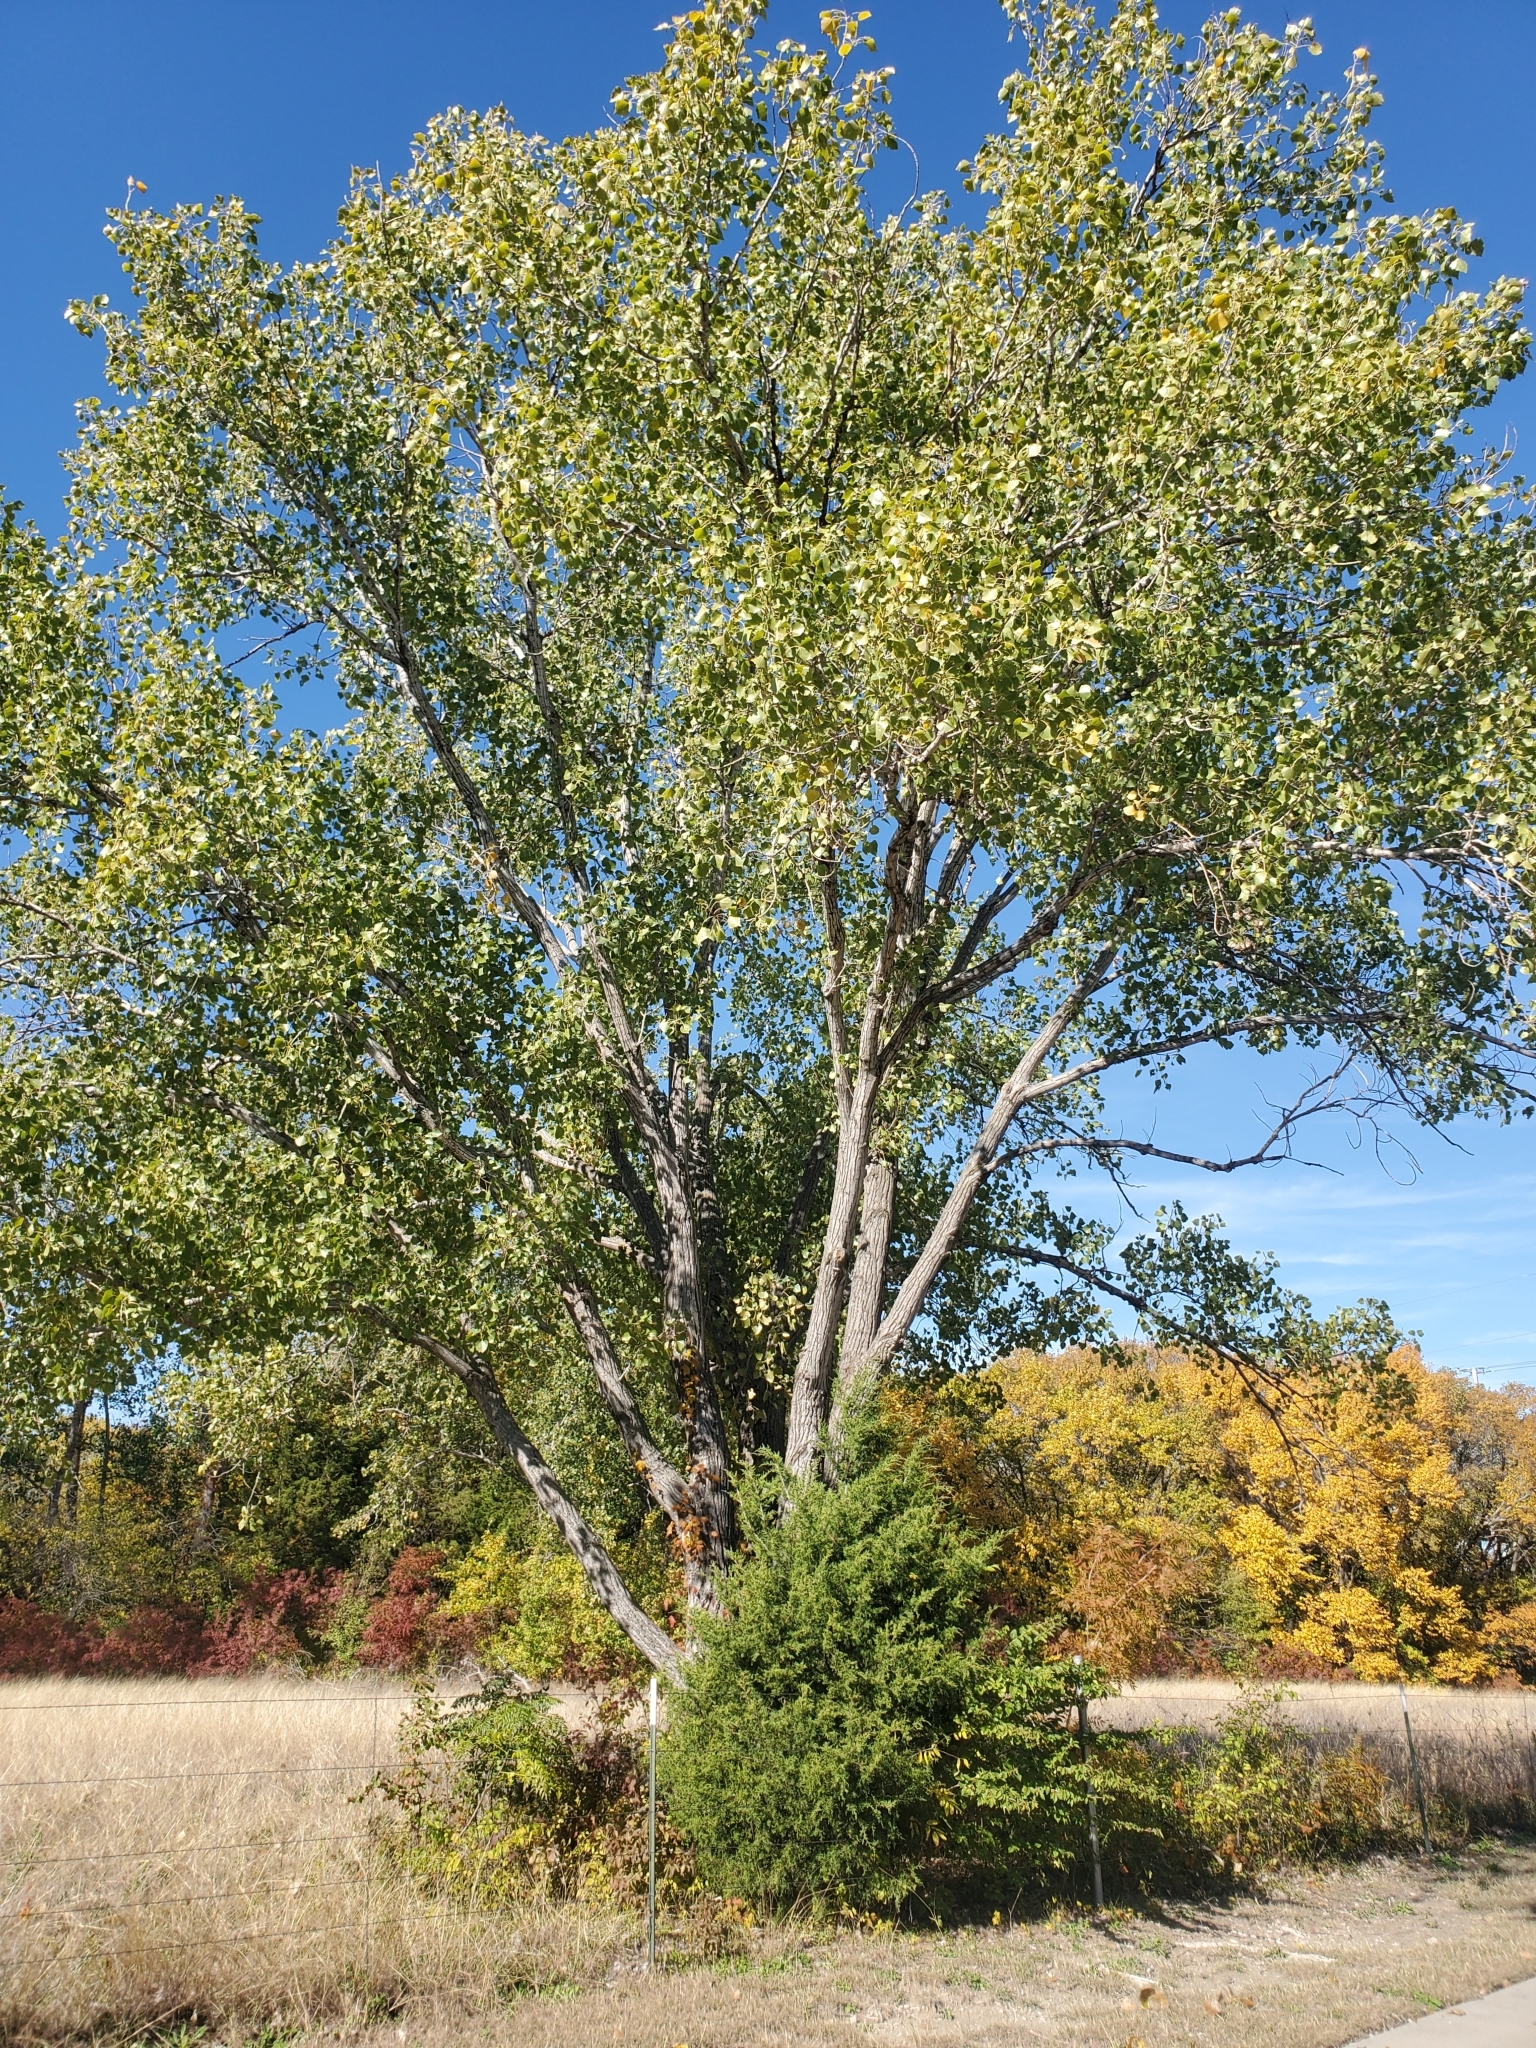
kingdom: Plantae
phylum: Tracheophyta
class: Magnoliopsida
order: Malpighiales
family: Salicaceae
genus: Populus
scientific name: Populus deltoides
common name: Eastern cottonwood
